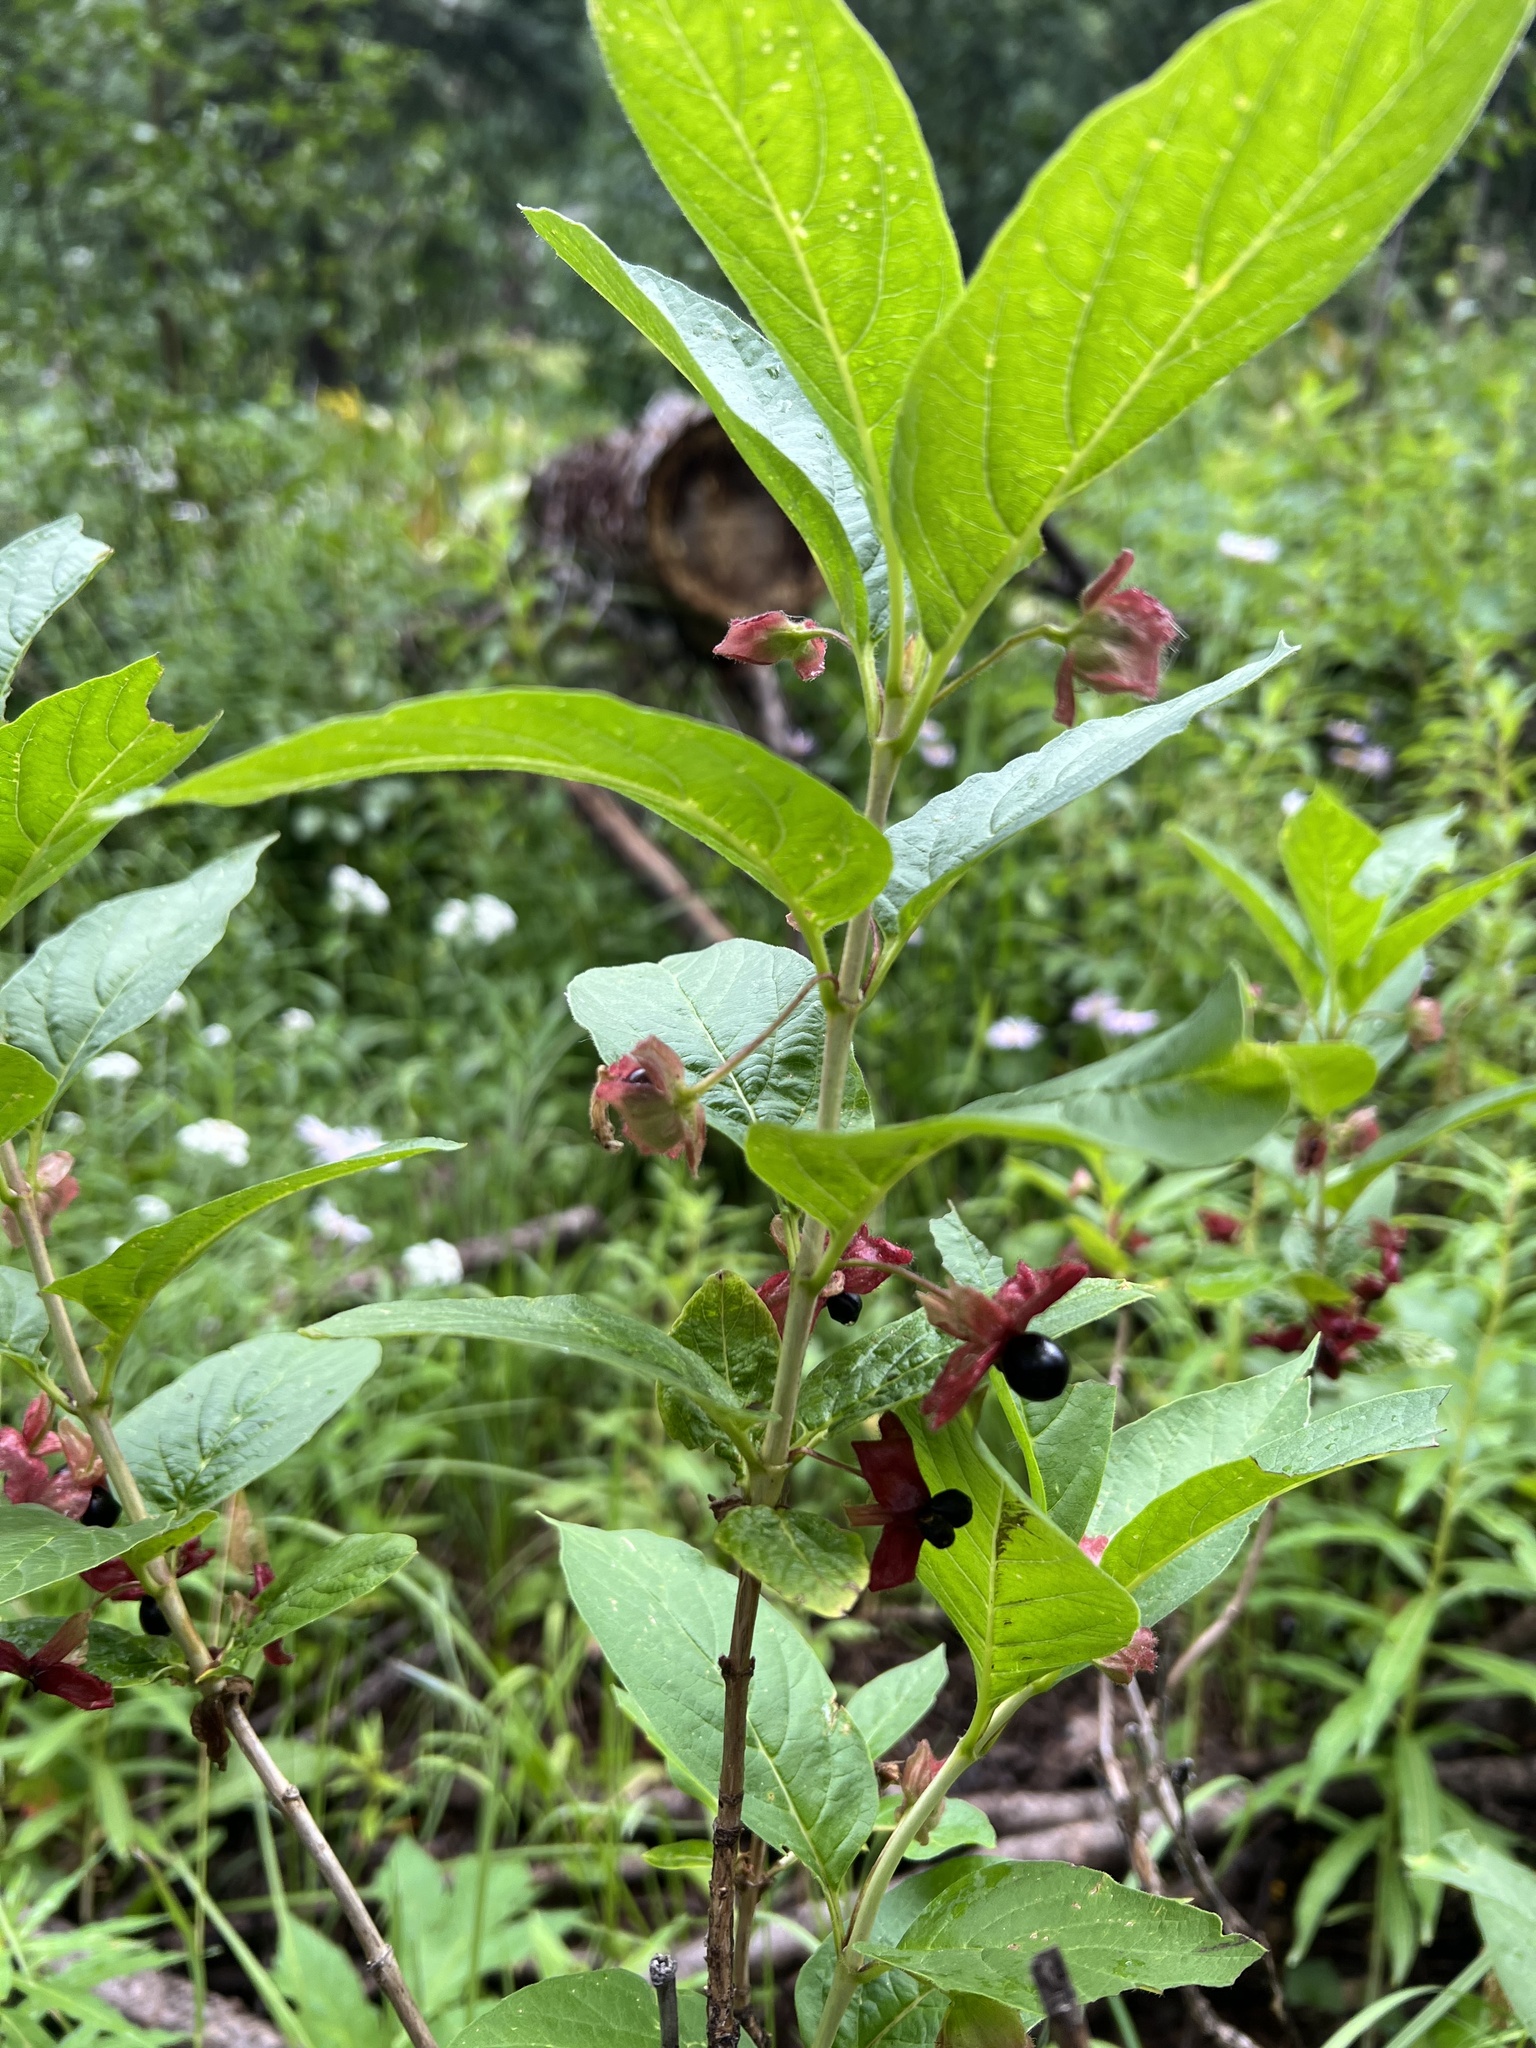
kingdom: Plantae
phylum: Tracheophyta
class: Magnoliopsida
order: Dipsacales
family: Caprifoliaceae
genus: Lonicera
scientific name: Lonicera involucrata
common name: Californian honeysuckle
